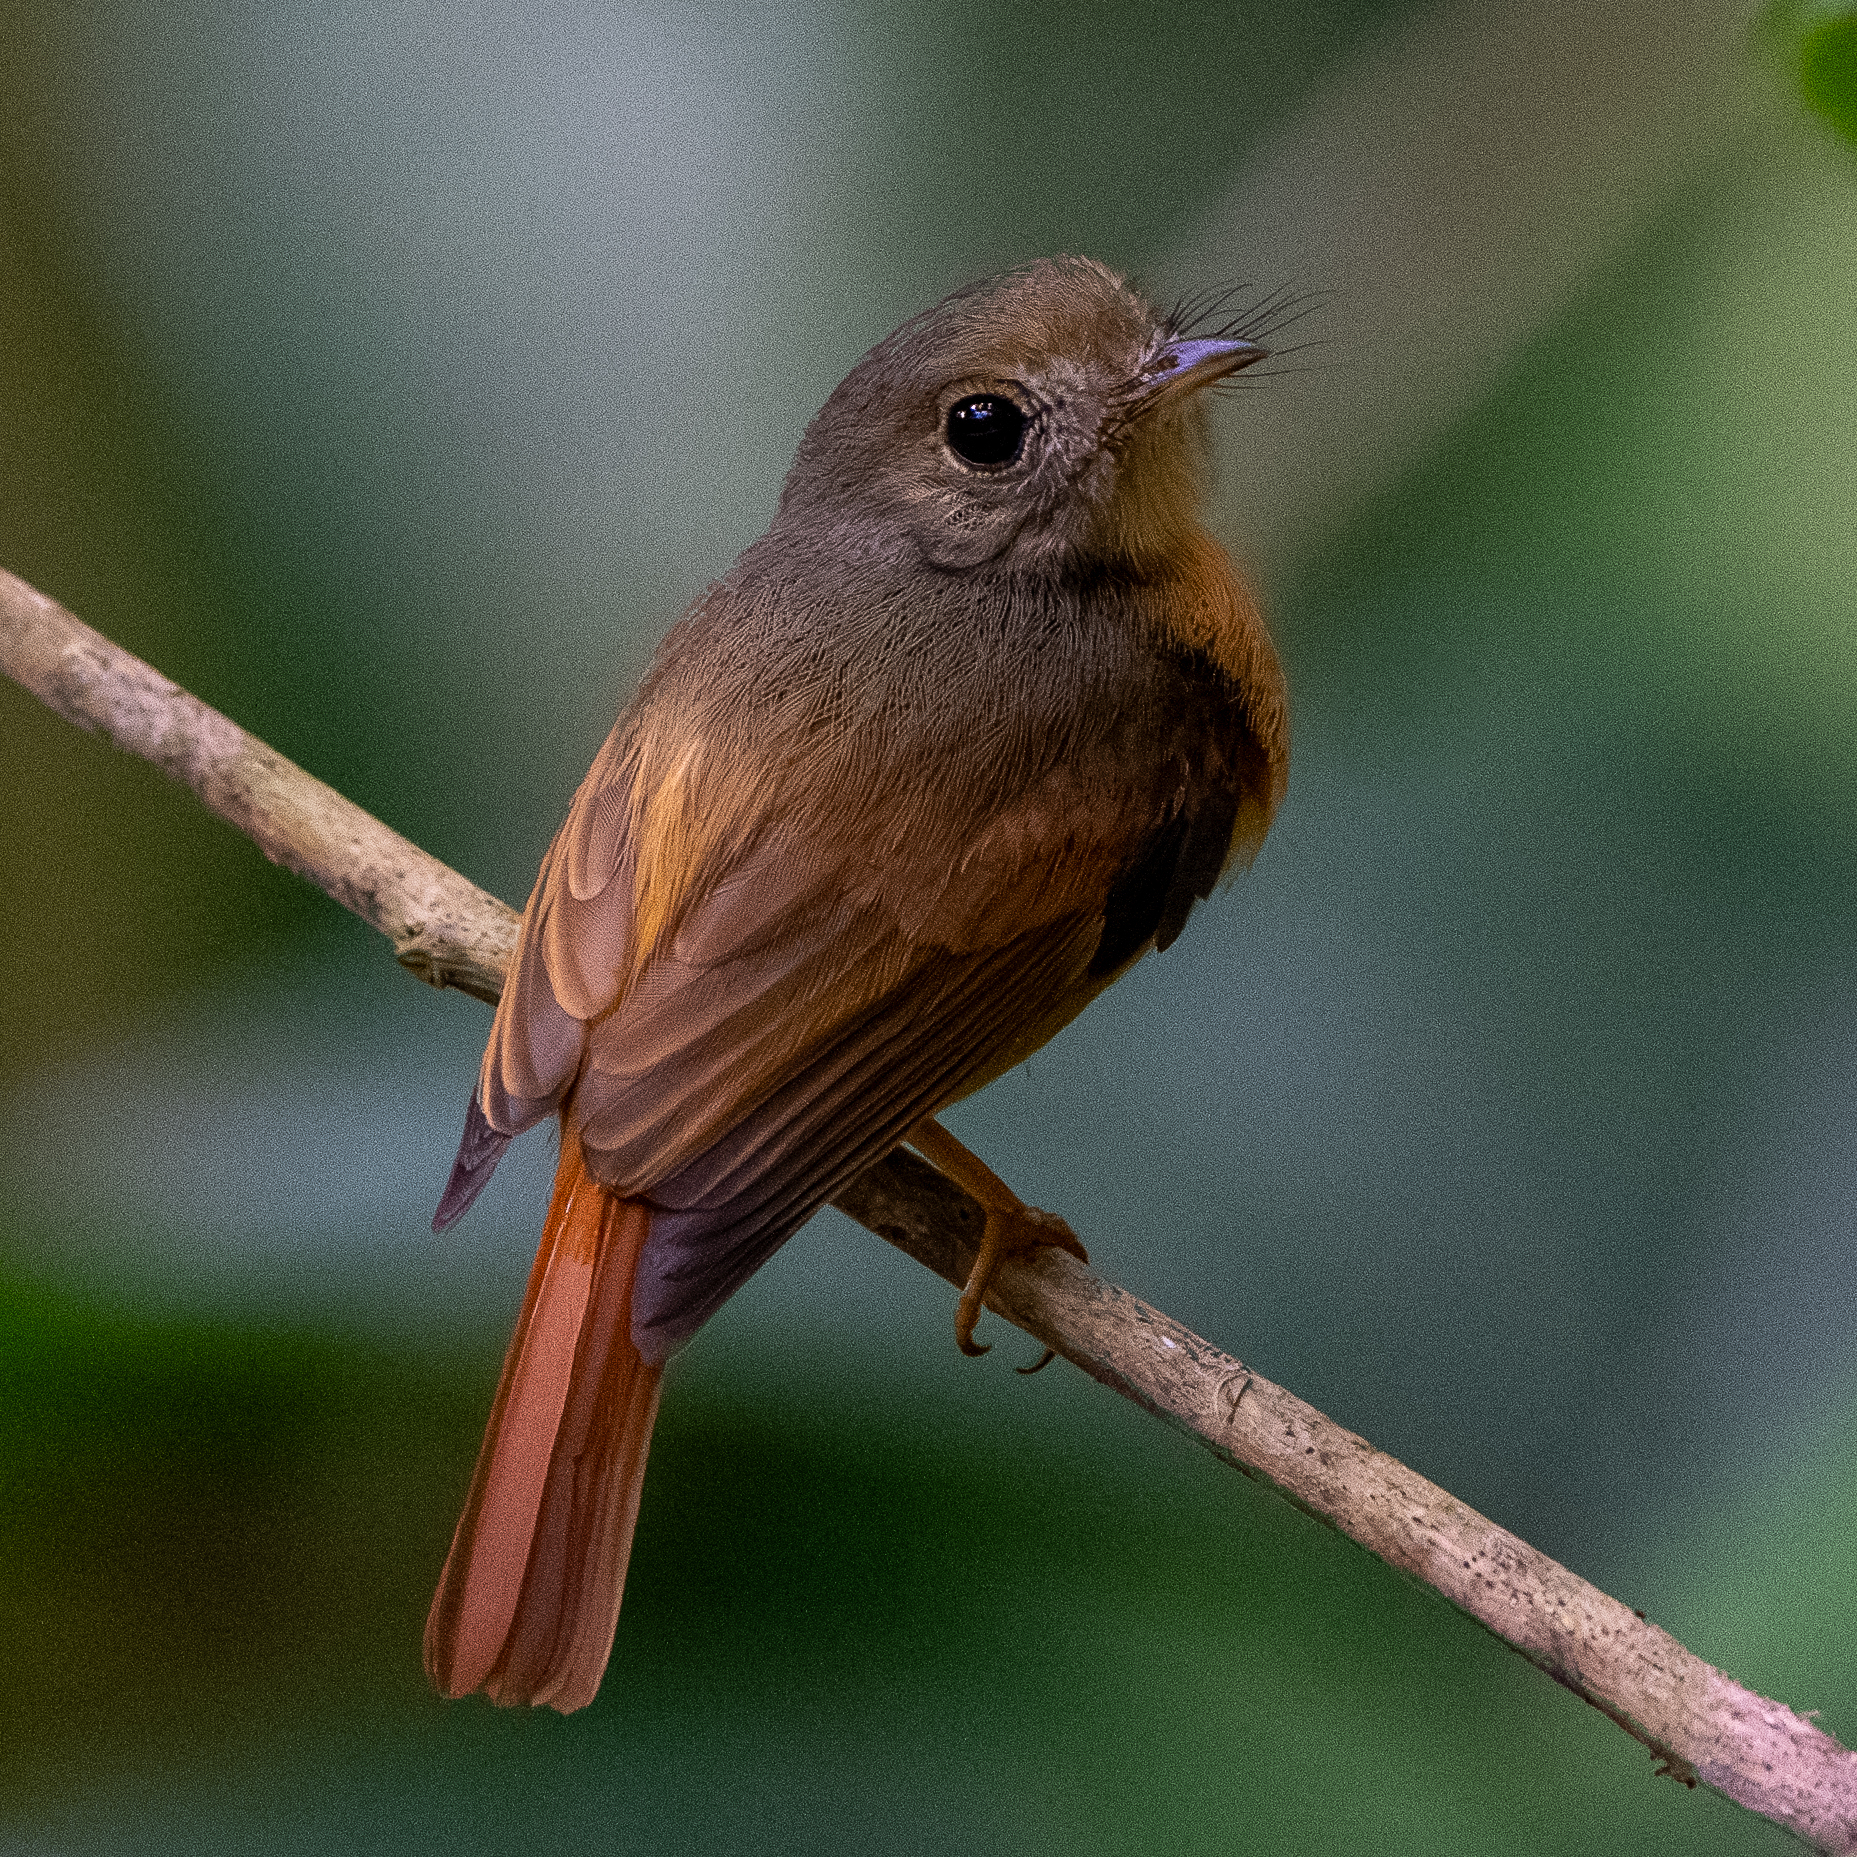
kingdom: Animalia
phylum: Chordata
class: Aves
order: Passeriformes
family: Tyrannidae
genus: Terenotriccus
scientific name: Terenotriccus erythrurus
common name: Ruddy-tailed flycatcher
